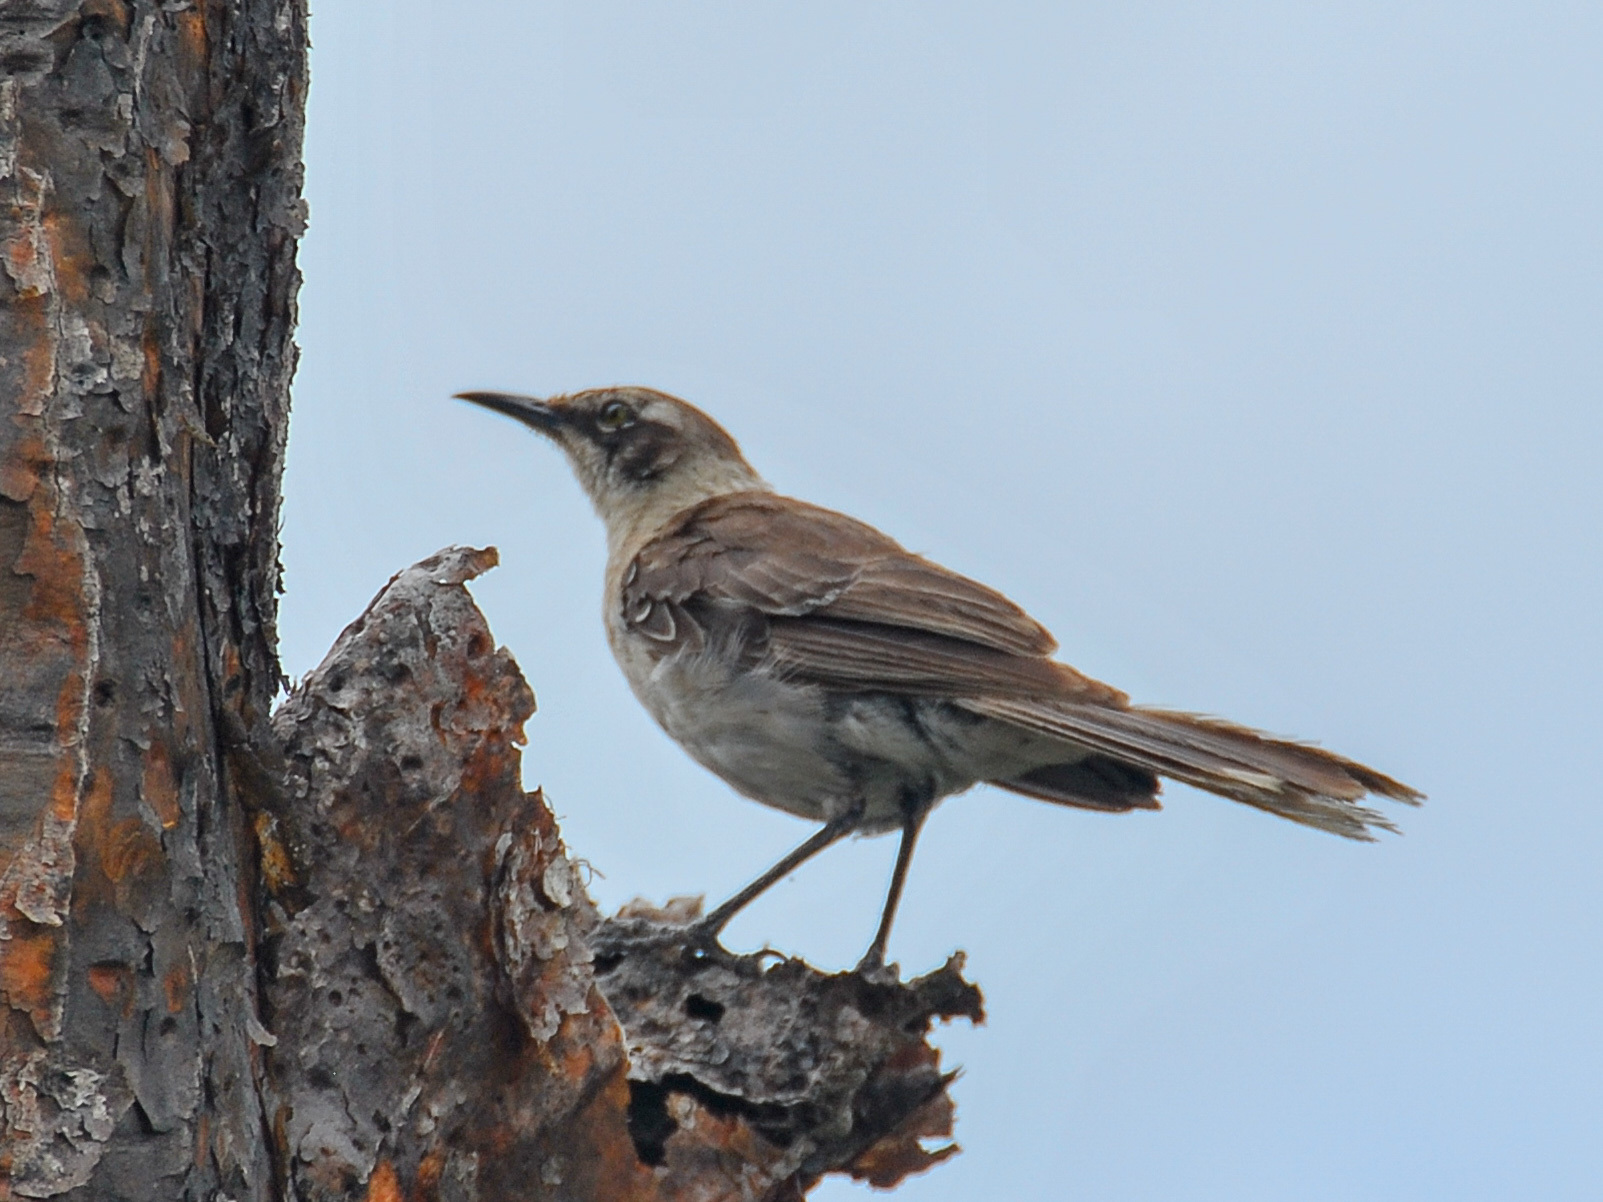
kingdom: Animalia
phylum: Chordata
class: Aves
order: Passeriformes
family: Mimidae
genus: Mimus
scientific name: Mimus parvulus
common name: Galapagos mockingbird
